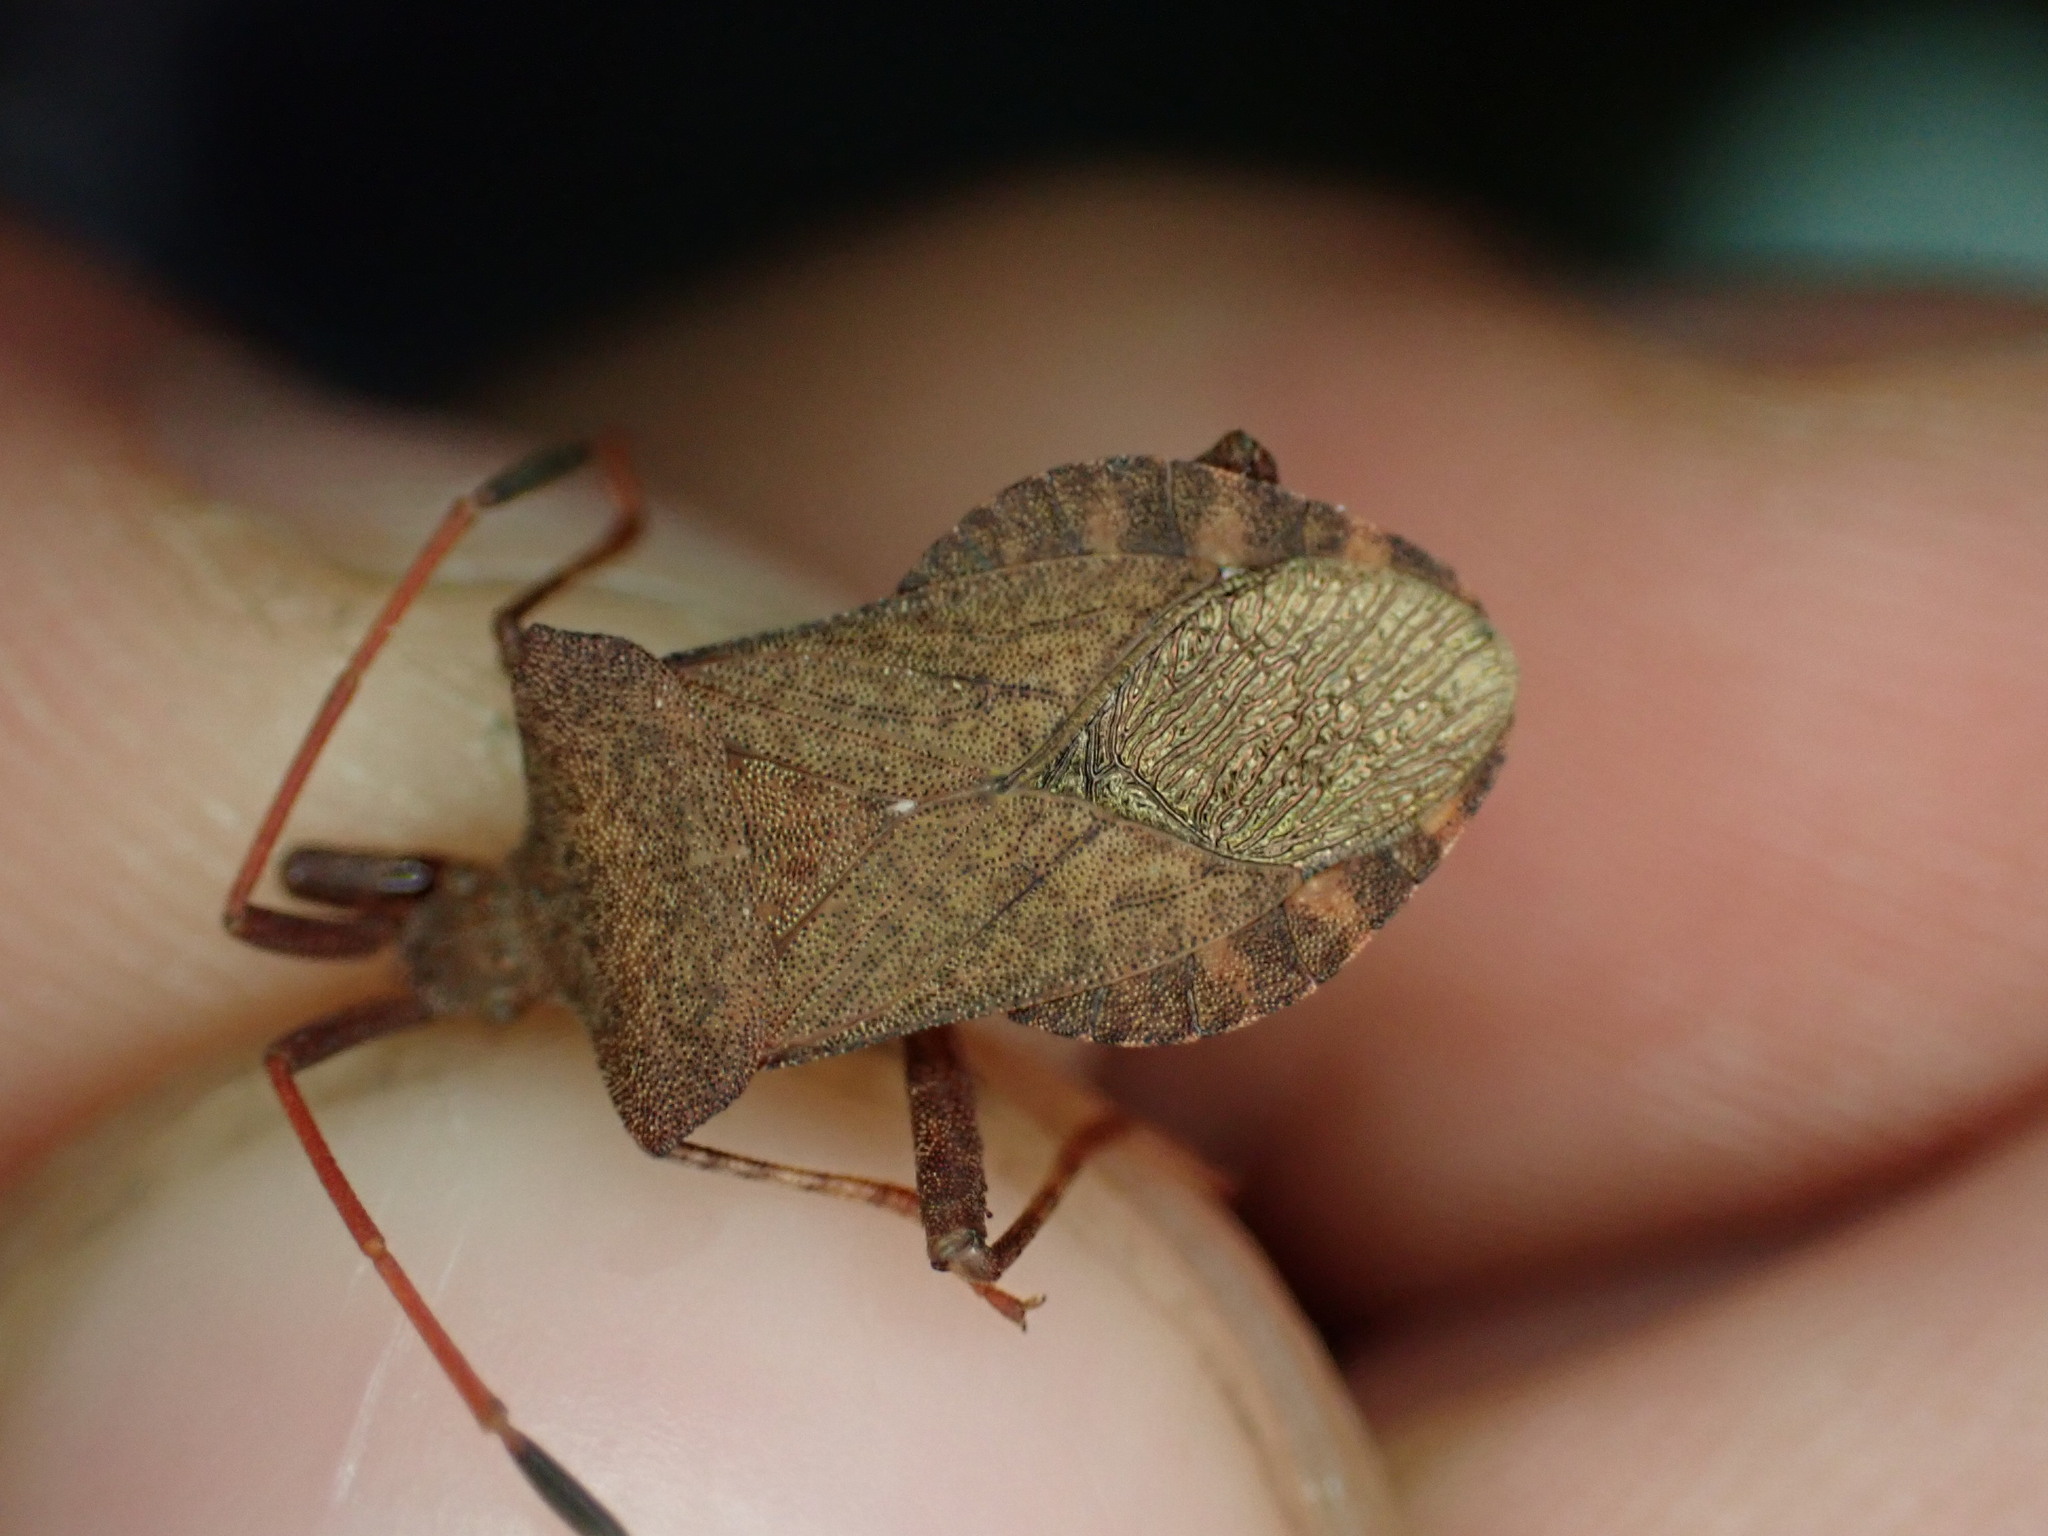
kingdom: Animalia
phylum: Arthropoda
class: Insecta
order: Hemiptera
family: Coreidae
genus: Coreus
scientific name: Coreus marginatus
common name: Dock bug
